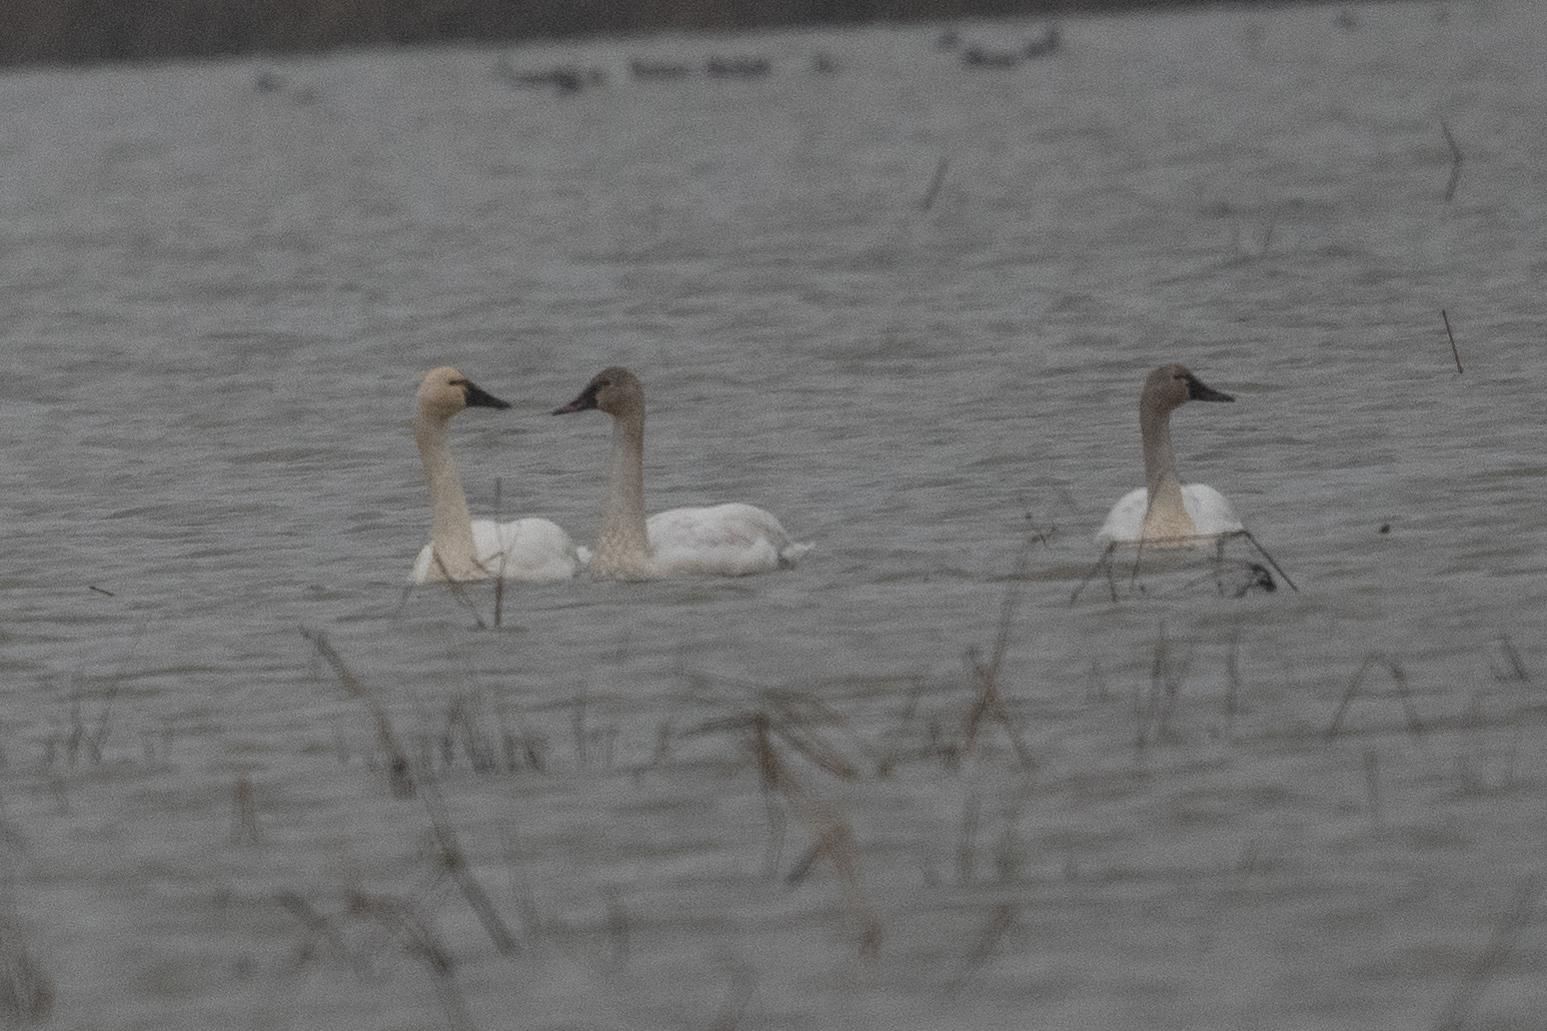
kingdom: Animalia
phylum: Chordata
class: Aves
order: Anseriformes
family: Anatidae
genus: Cygnus
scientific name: Cygnus columbianus
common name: Tundra swan
